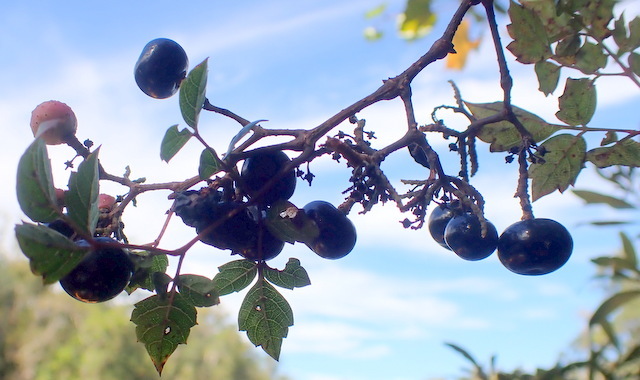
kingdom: Plantae
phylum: Tracheophyta
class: Magnoliopsida
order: Vitales
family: Vitaceae
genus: Nekemias
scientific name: Nekemias arborea
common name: Peppervine
